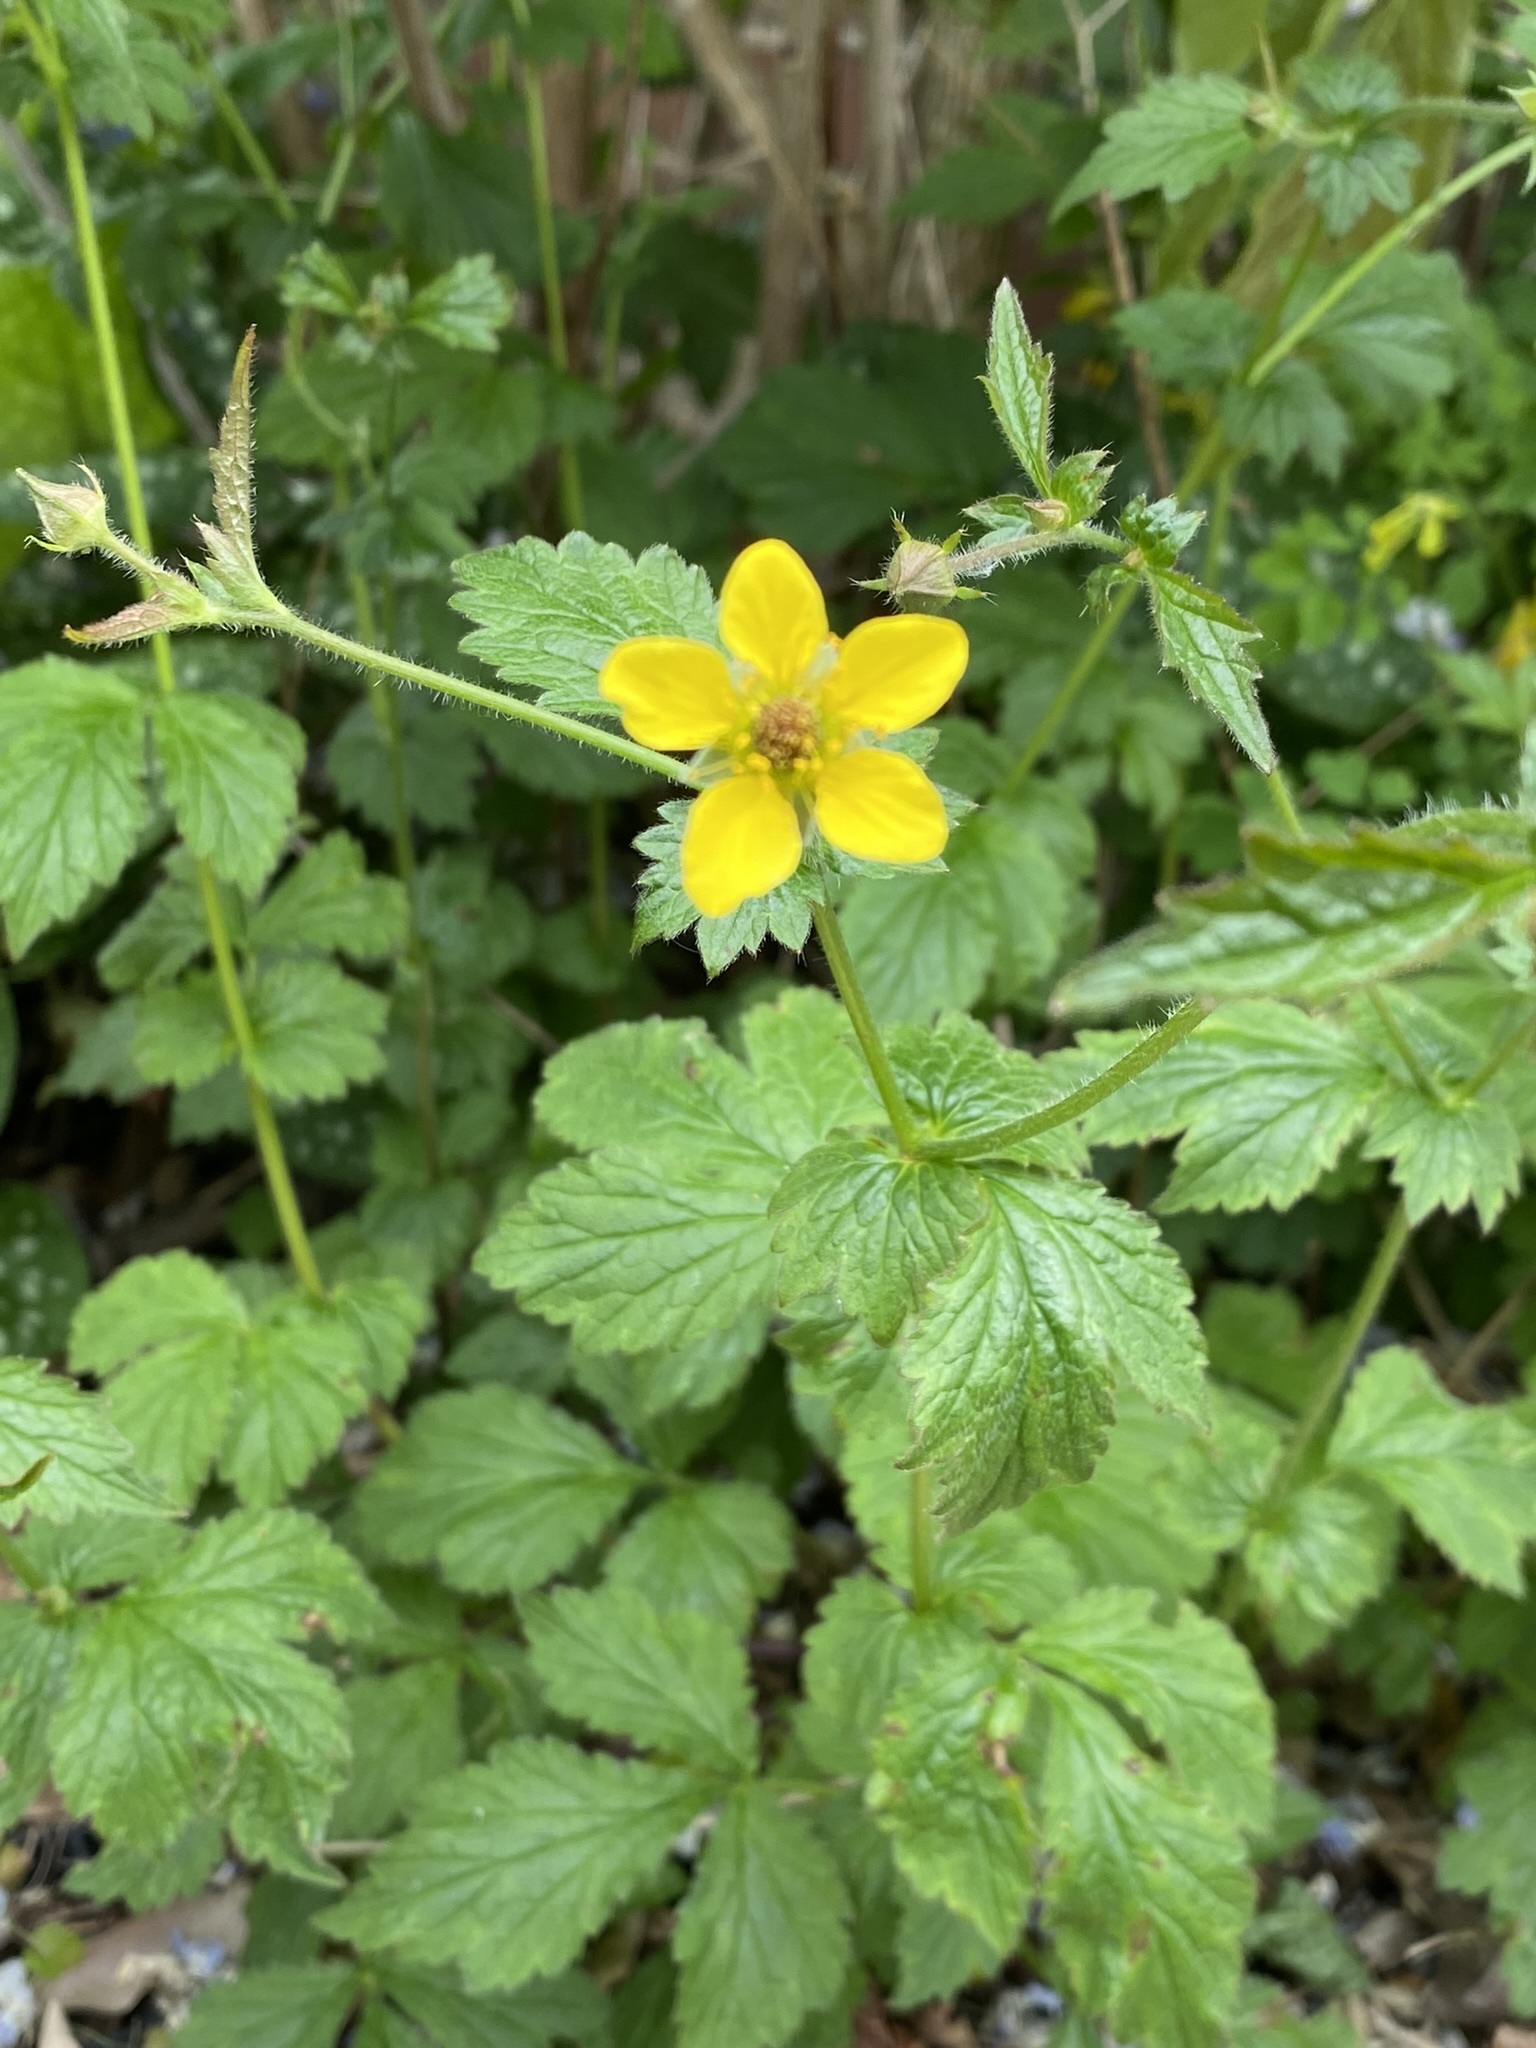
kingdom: Plantae
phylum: Tracheophyta
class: Magnoliopsida
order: Rosales
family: Rosaceae
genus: Geum
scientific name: Geum urbanum
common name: Wood avens
